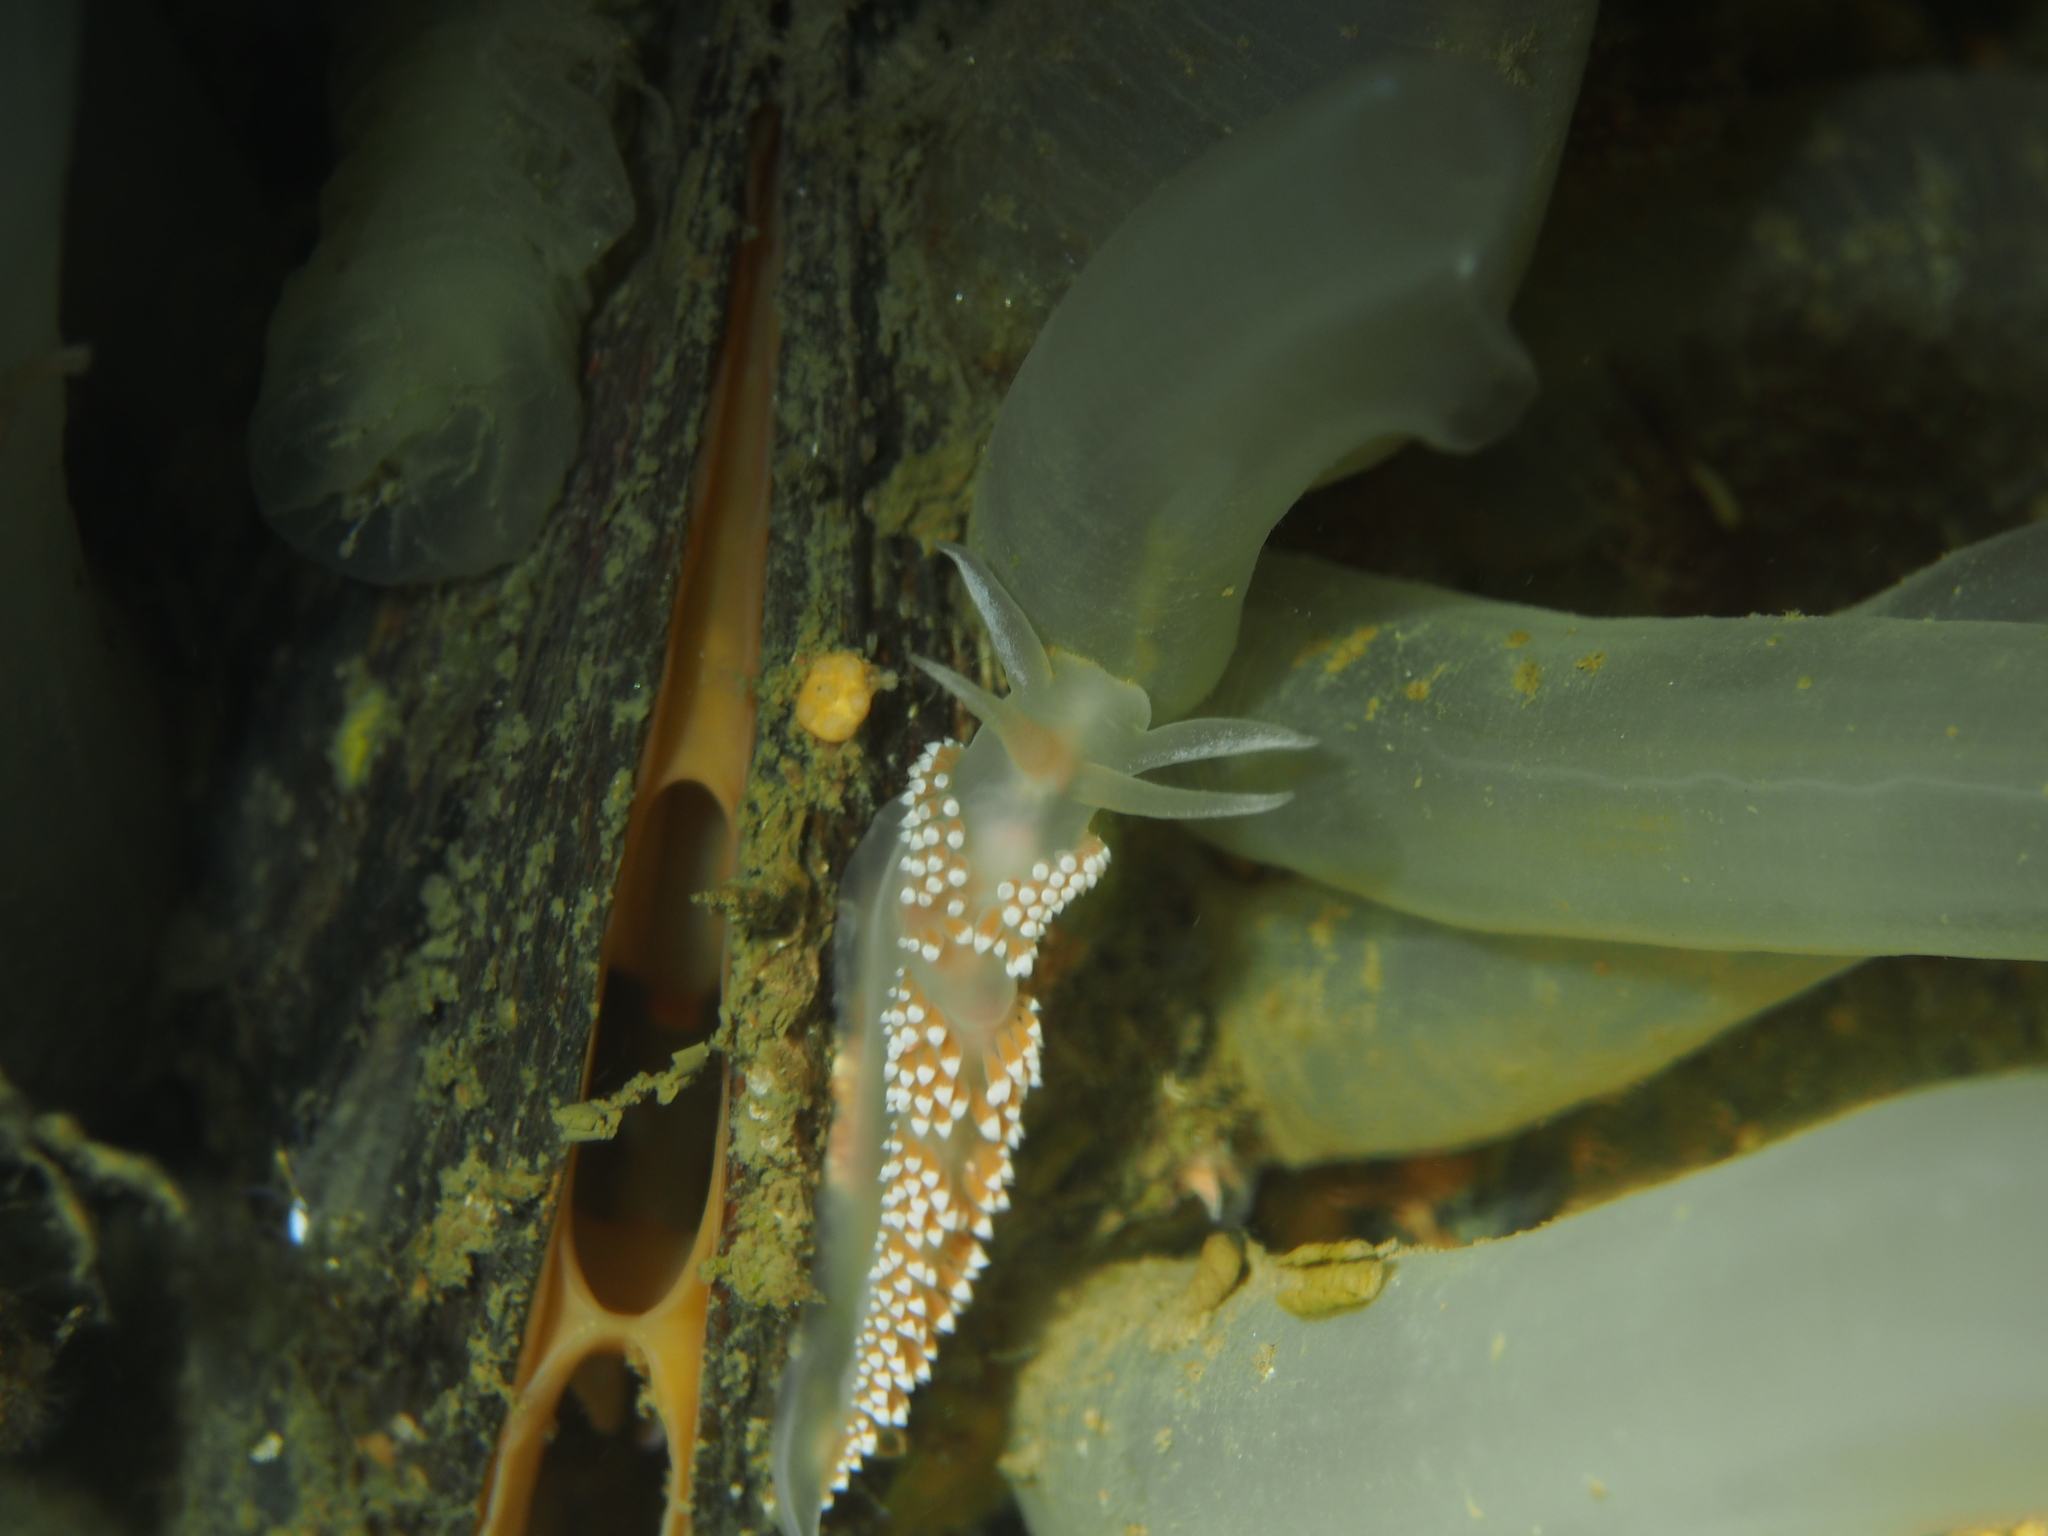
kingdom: Animalia
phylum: Mollusca
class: Gastropoda
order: Nudibranchia
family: Coryphellidae
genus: Coryphella
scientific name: Coryphella verrucosa
